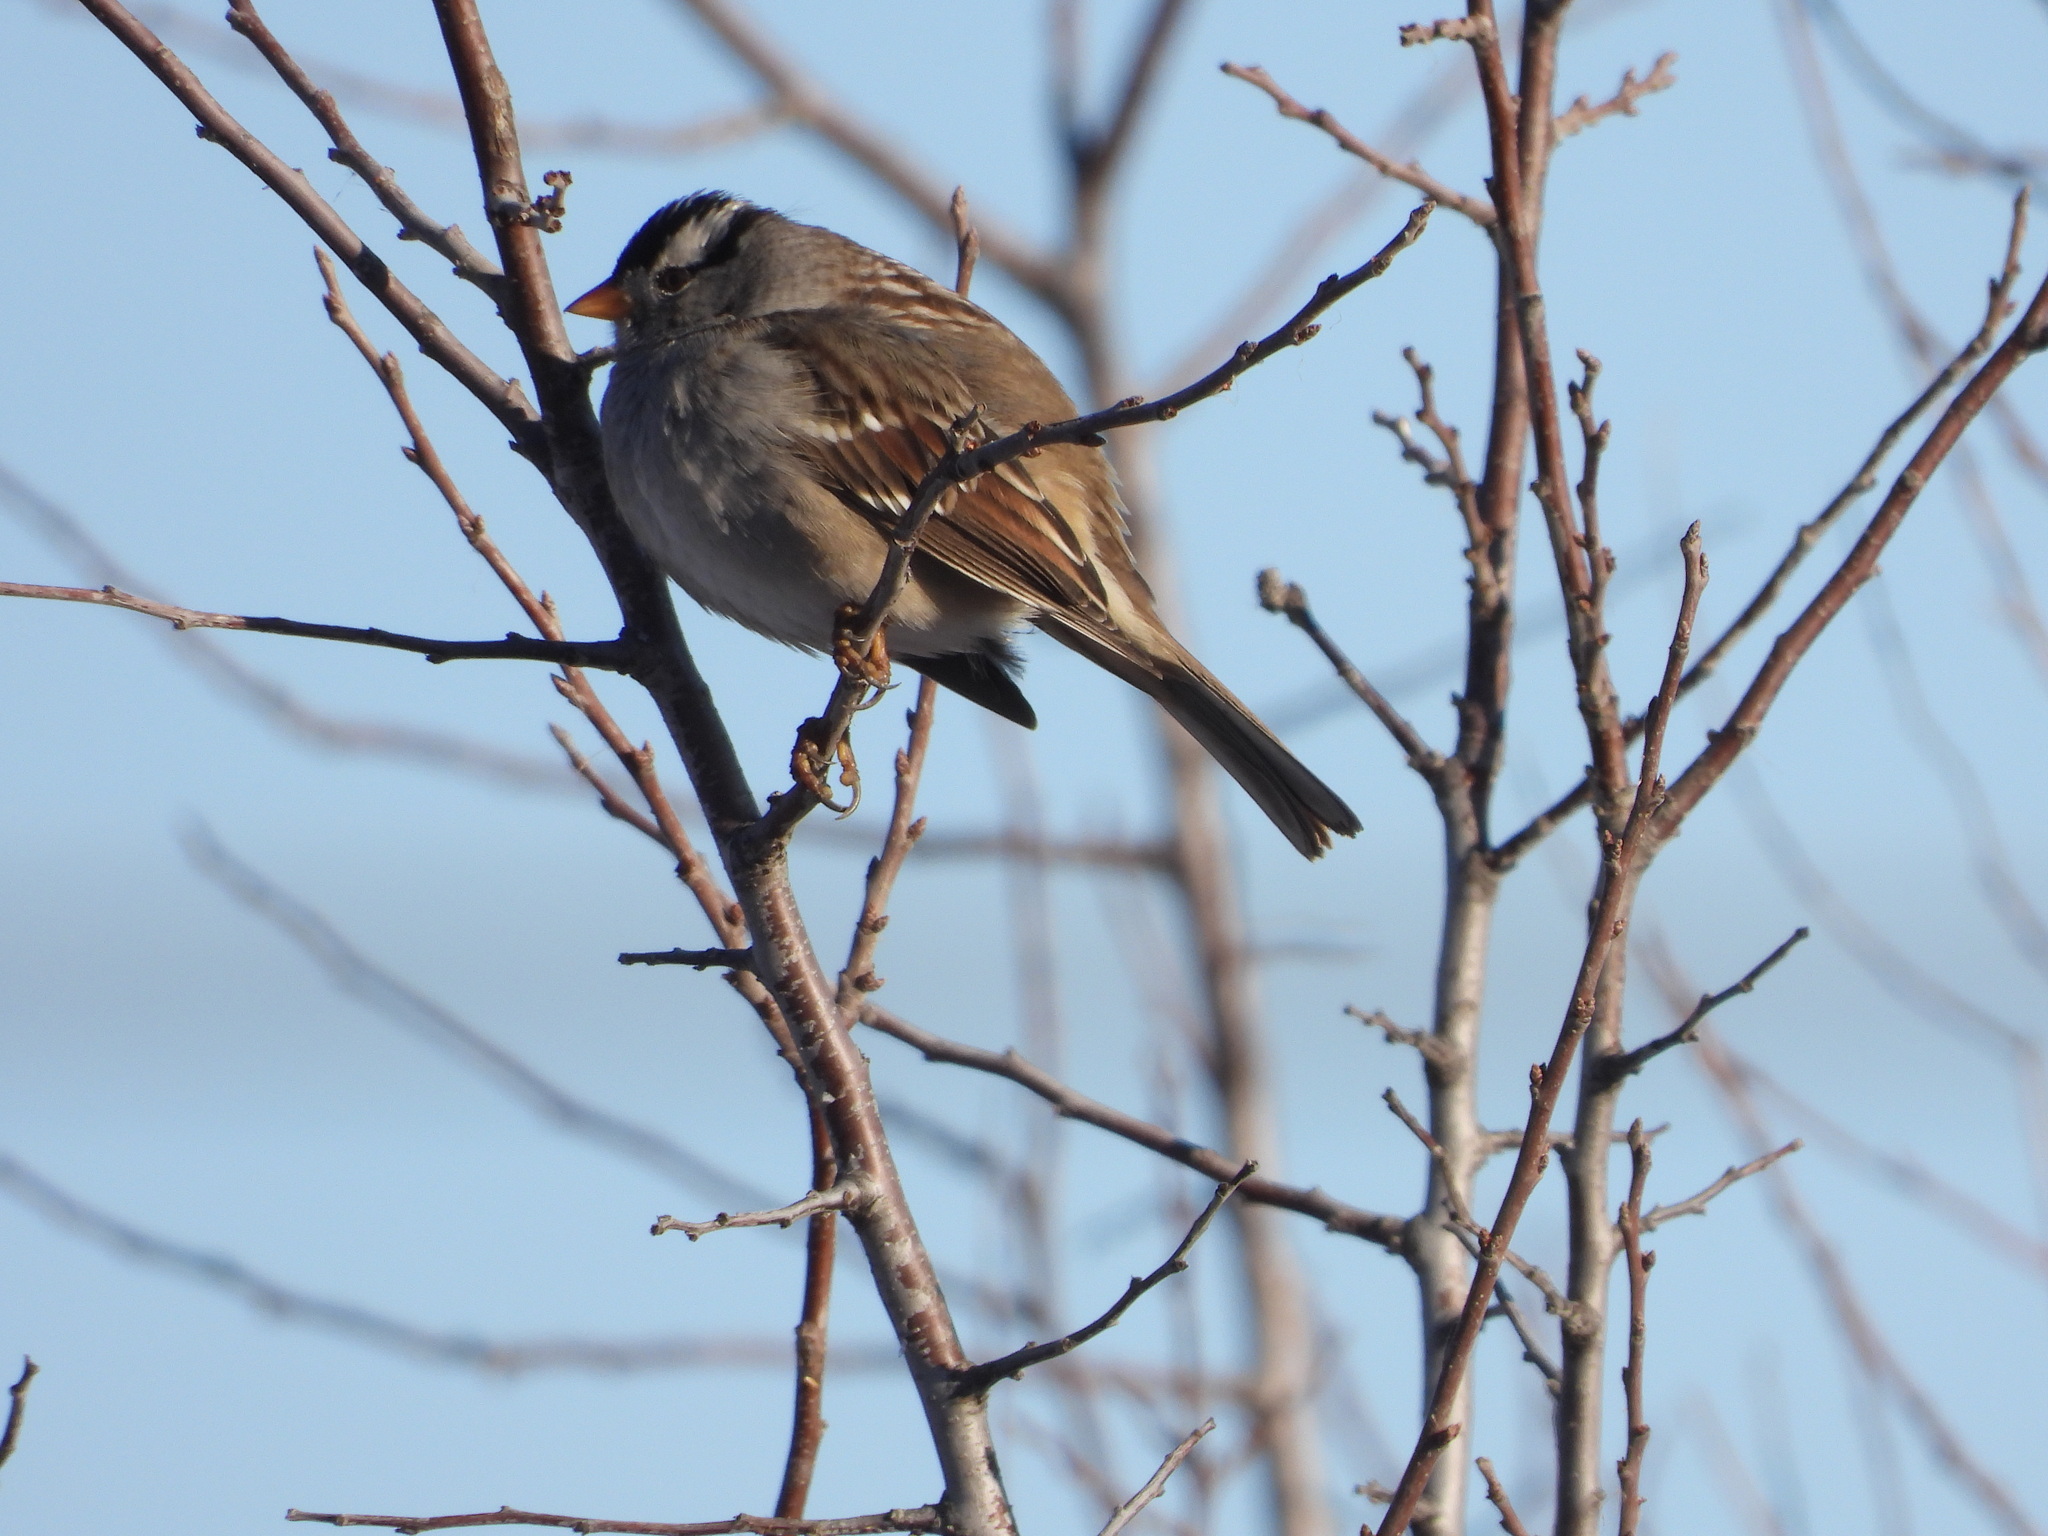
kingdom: Animalia
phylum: Chordata
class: Aves
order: Passeriformes
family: Passerellidae
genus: Zonotrichia
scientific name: Zonotrichia leucophrys
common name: White-crowned sparrow
